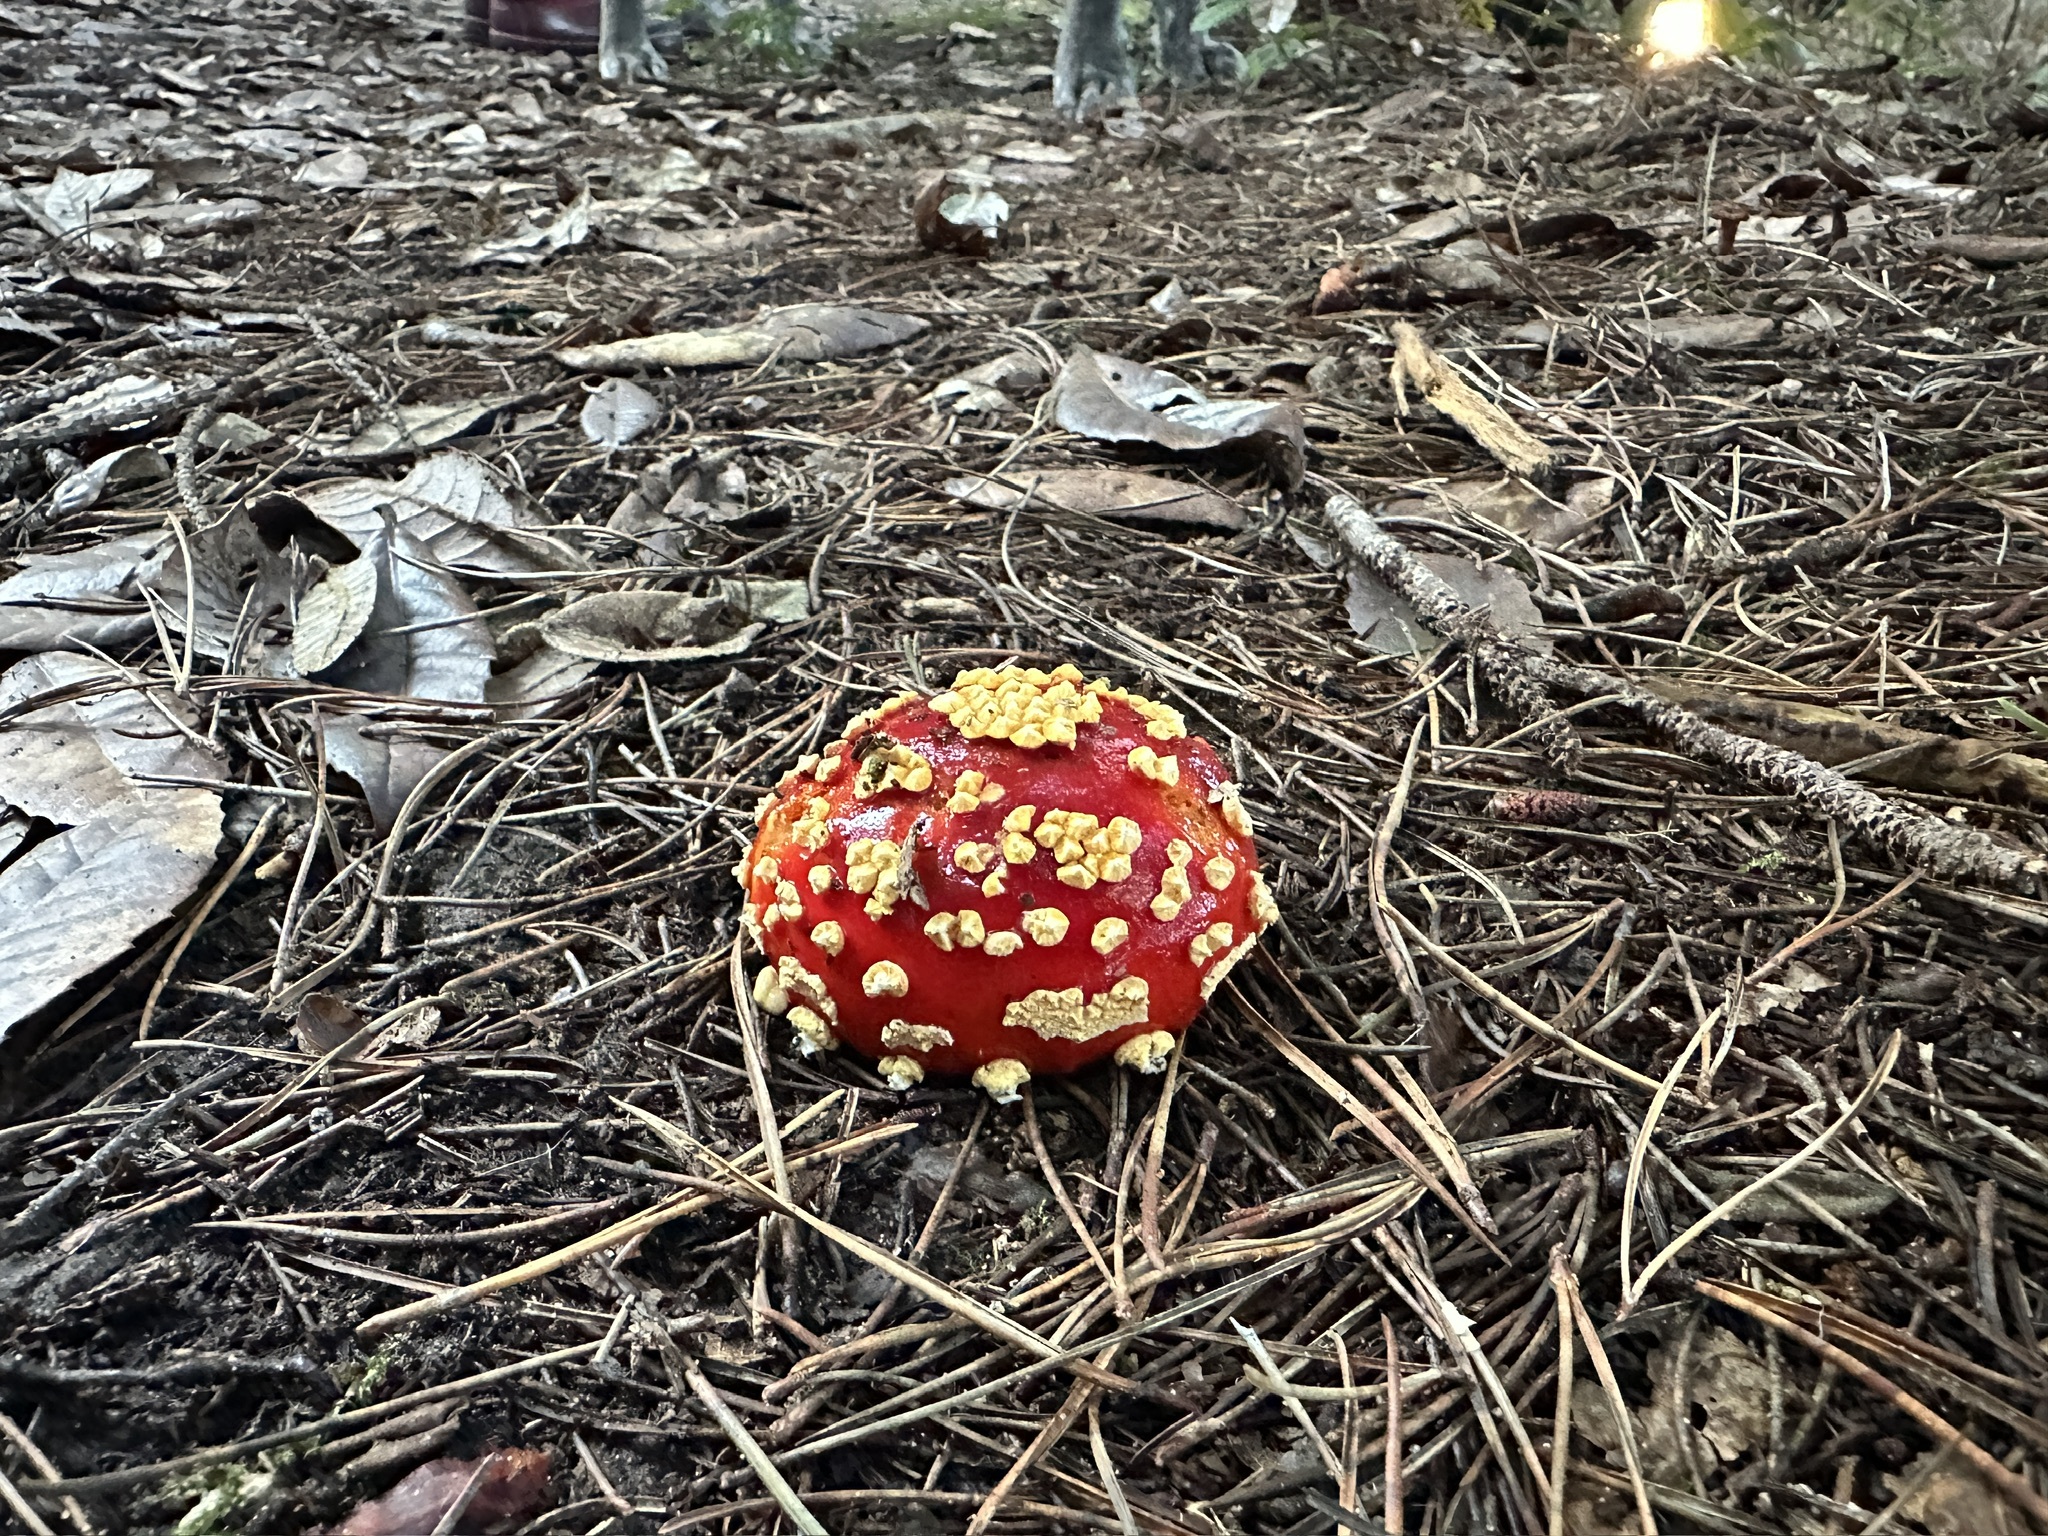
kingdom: Fungi
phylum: Basidiomycota
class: Agaricomycetes
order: Agaricales
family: Amanitaceae
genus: Amanita
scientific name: Amanita muscaria
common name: Fly agaric
